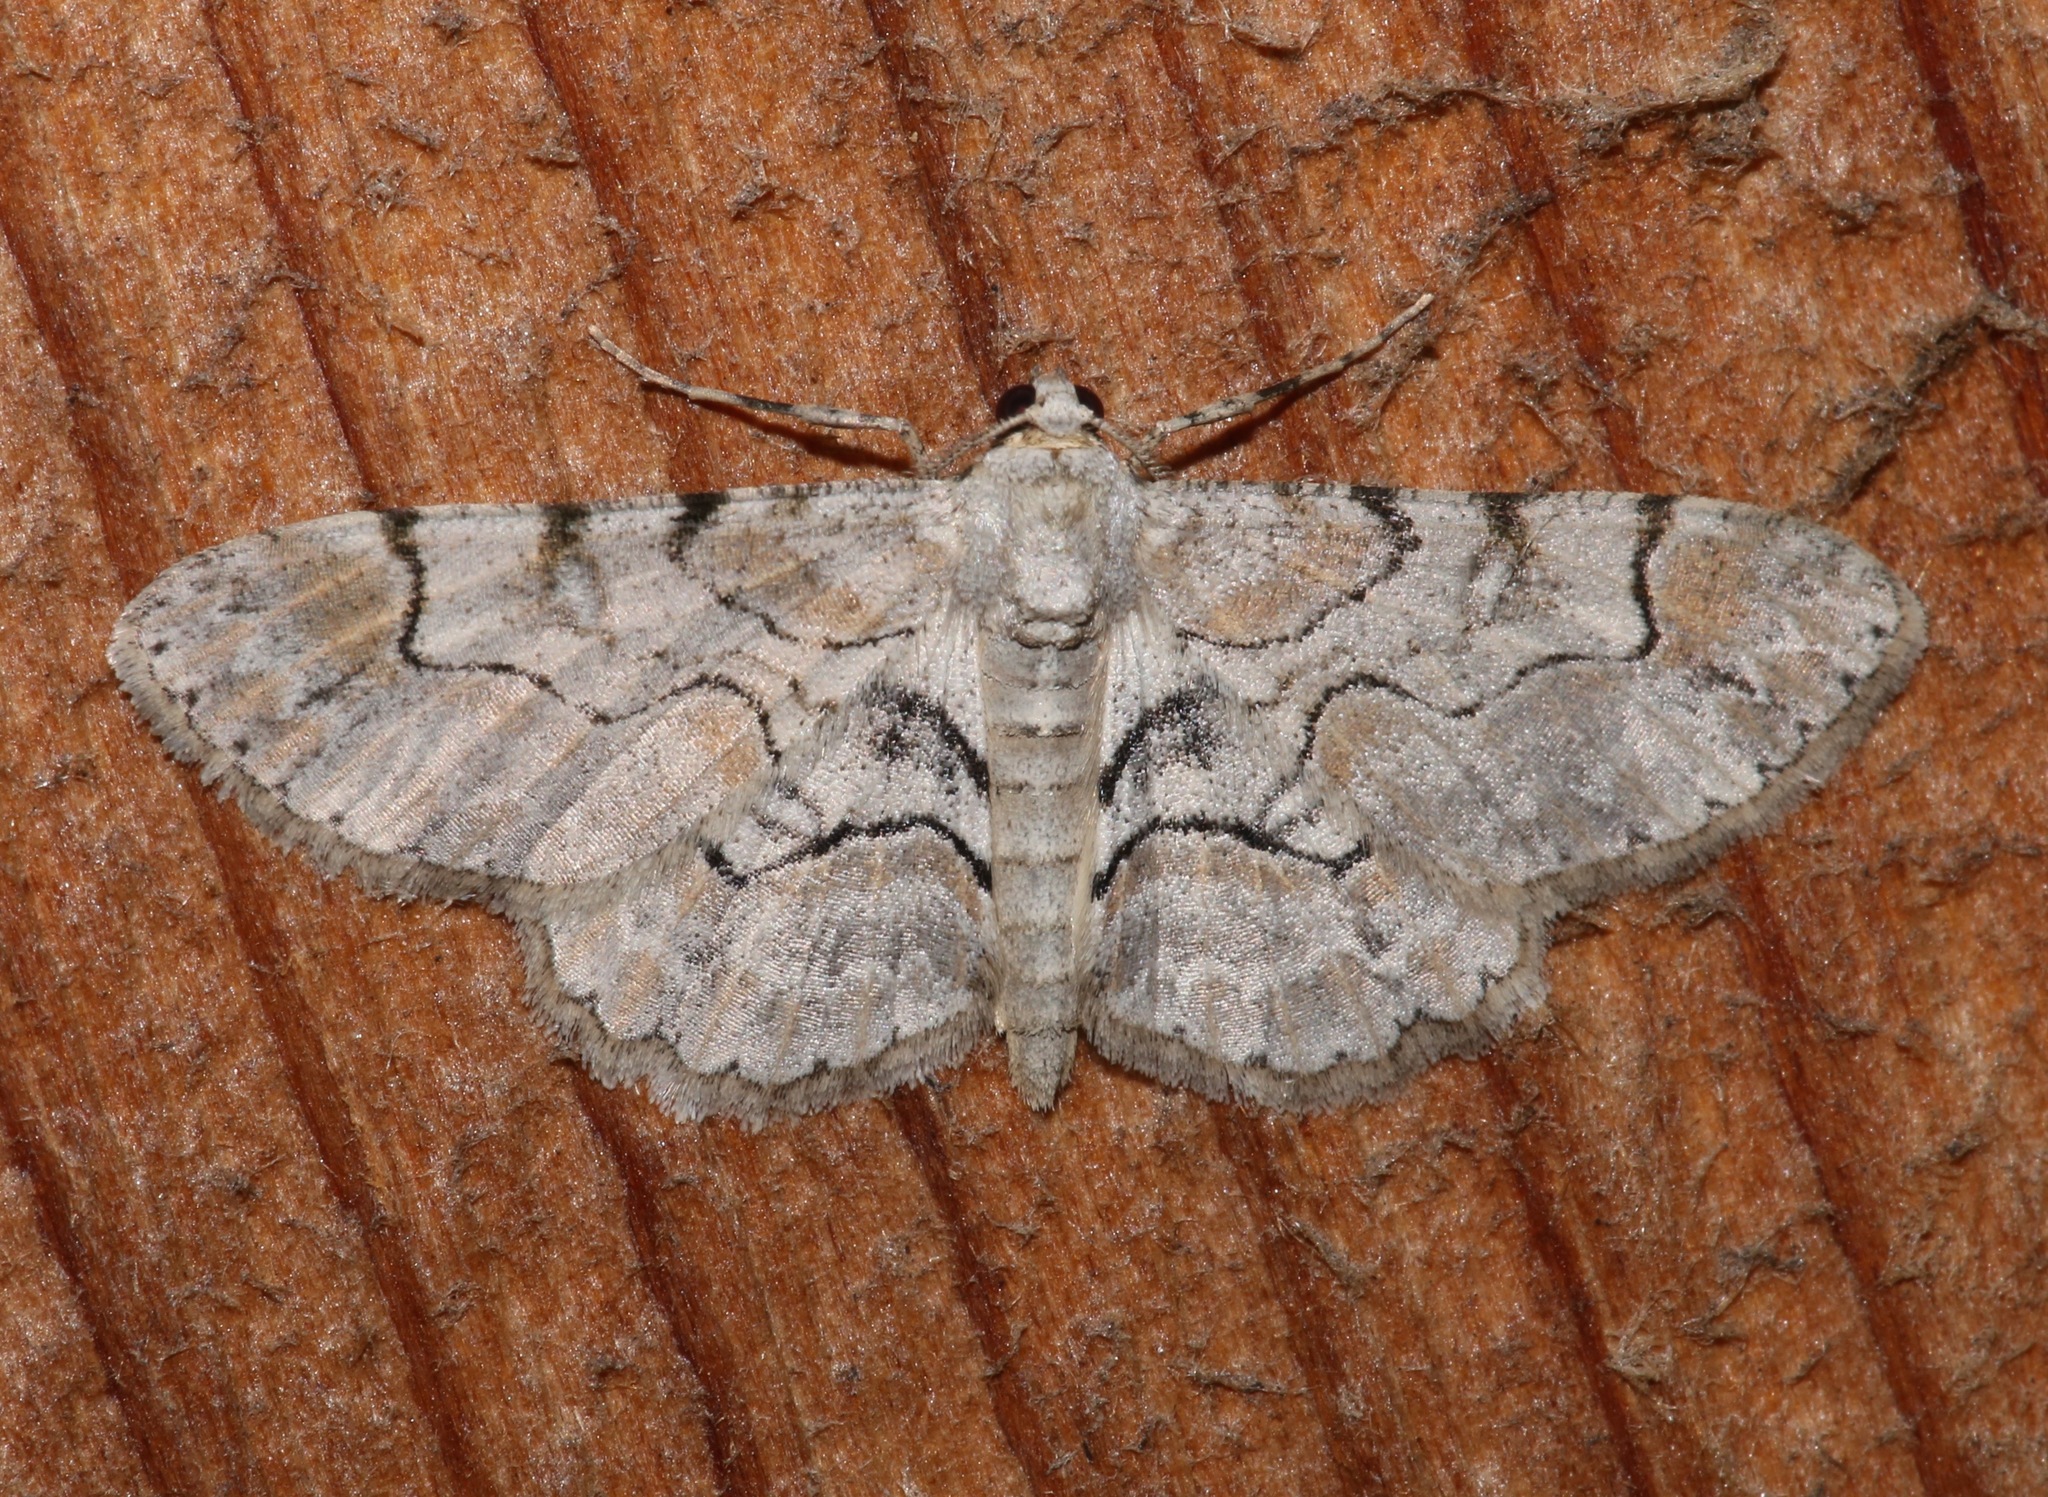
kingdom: Animalia
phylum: Arthropoda
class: Insecta
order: Lepidoptera
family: Geometridae
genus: Iridopsis
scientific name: Iridopsis larvaria
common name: Bent-line gray
